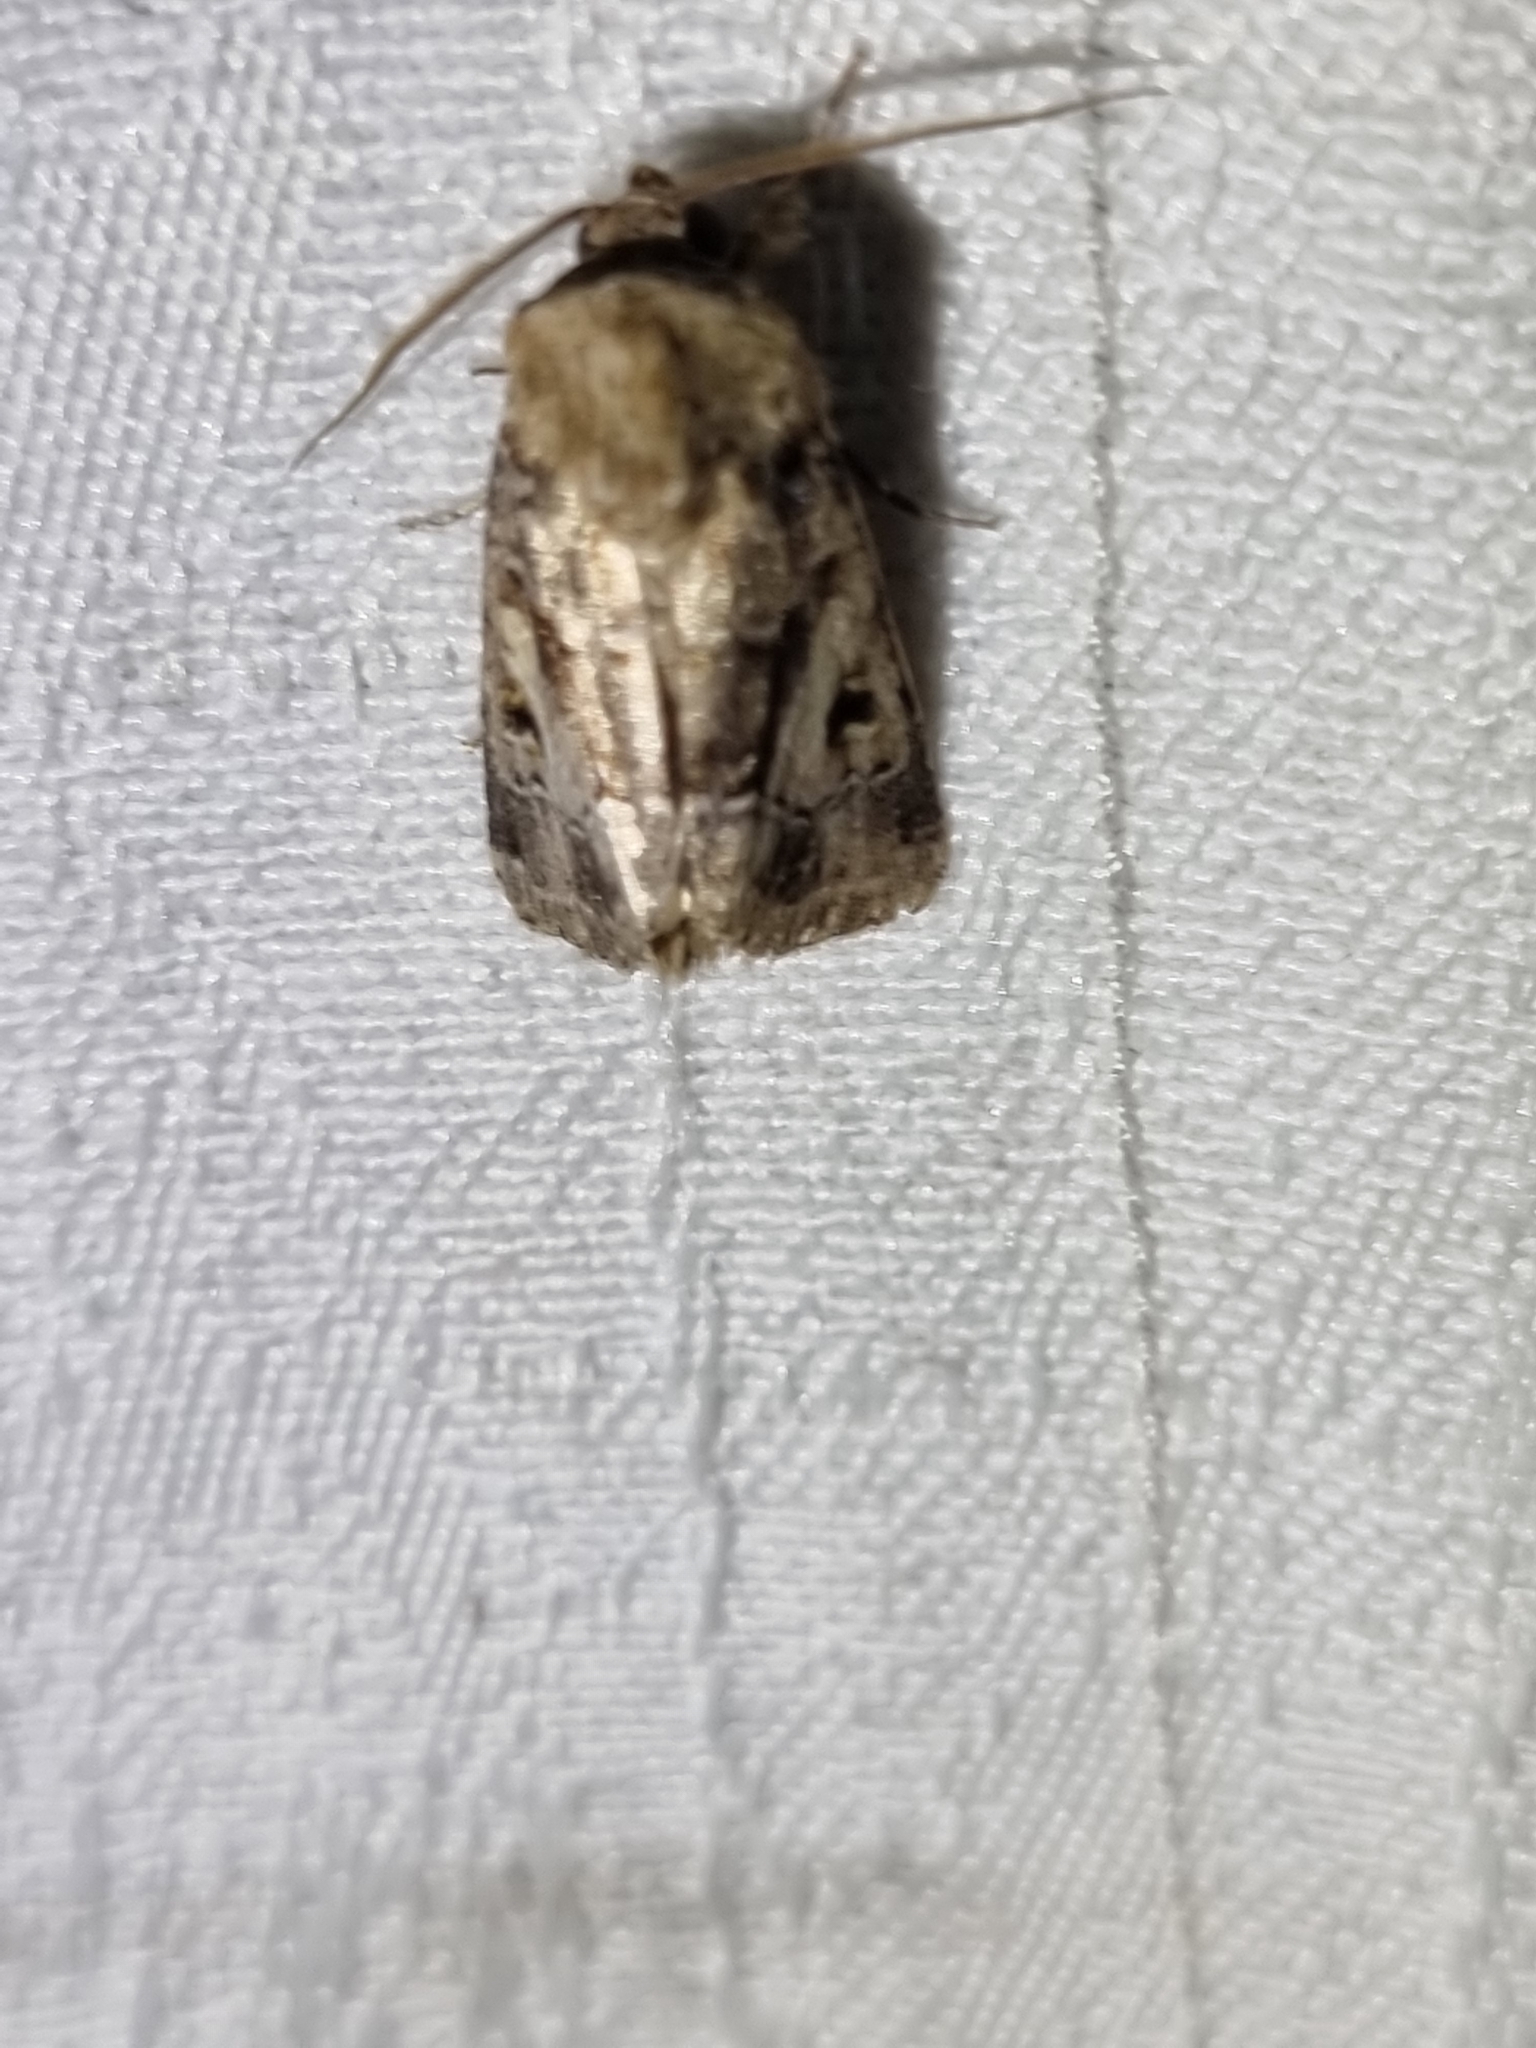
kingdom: Animalia
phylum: Arthropoda
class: Insecta
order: Lepidoptera
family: Noctuidae
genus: Spodoptera
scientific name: Spodoptera umbraculata
